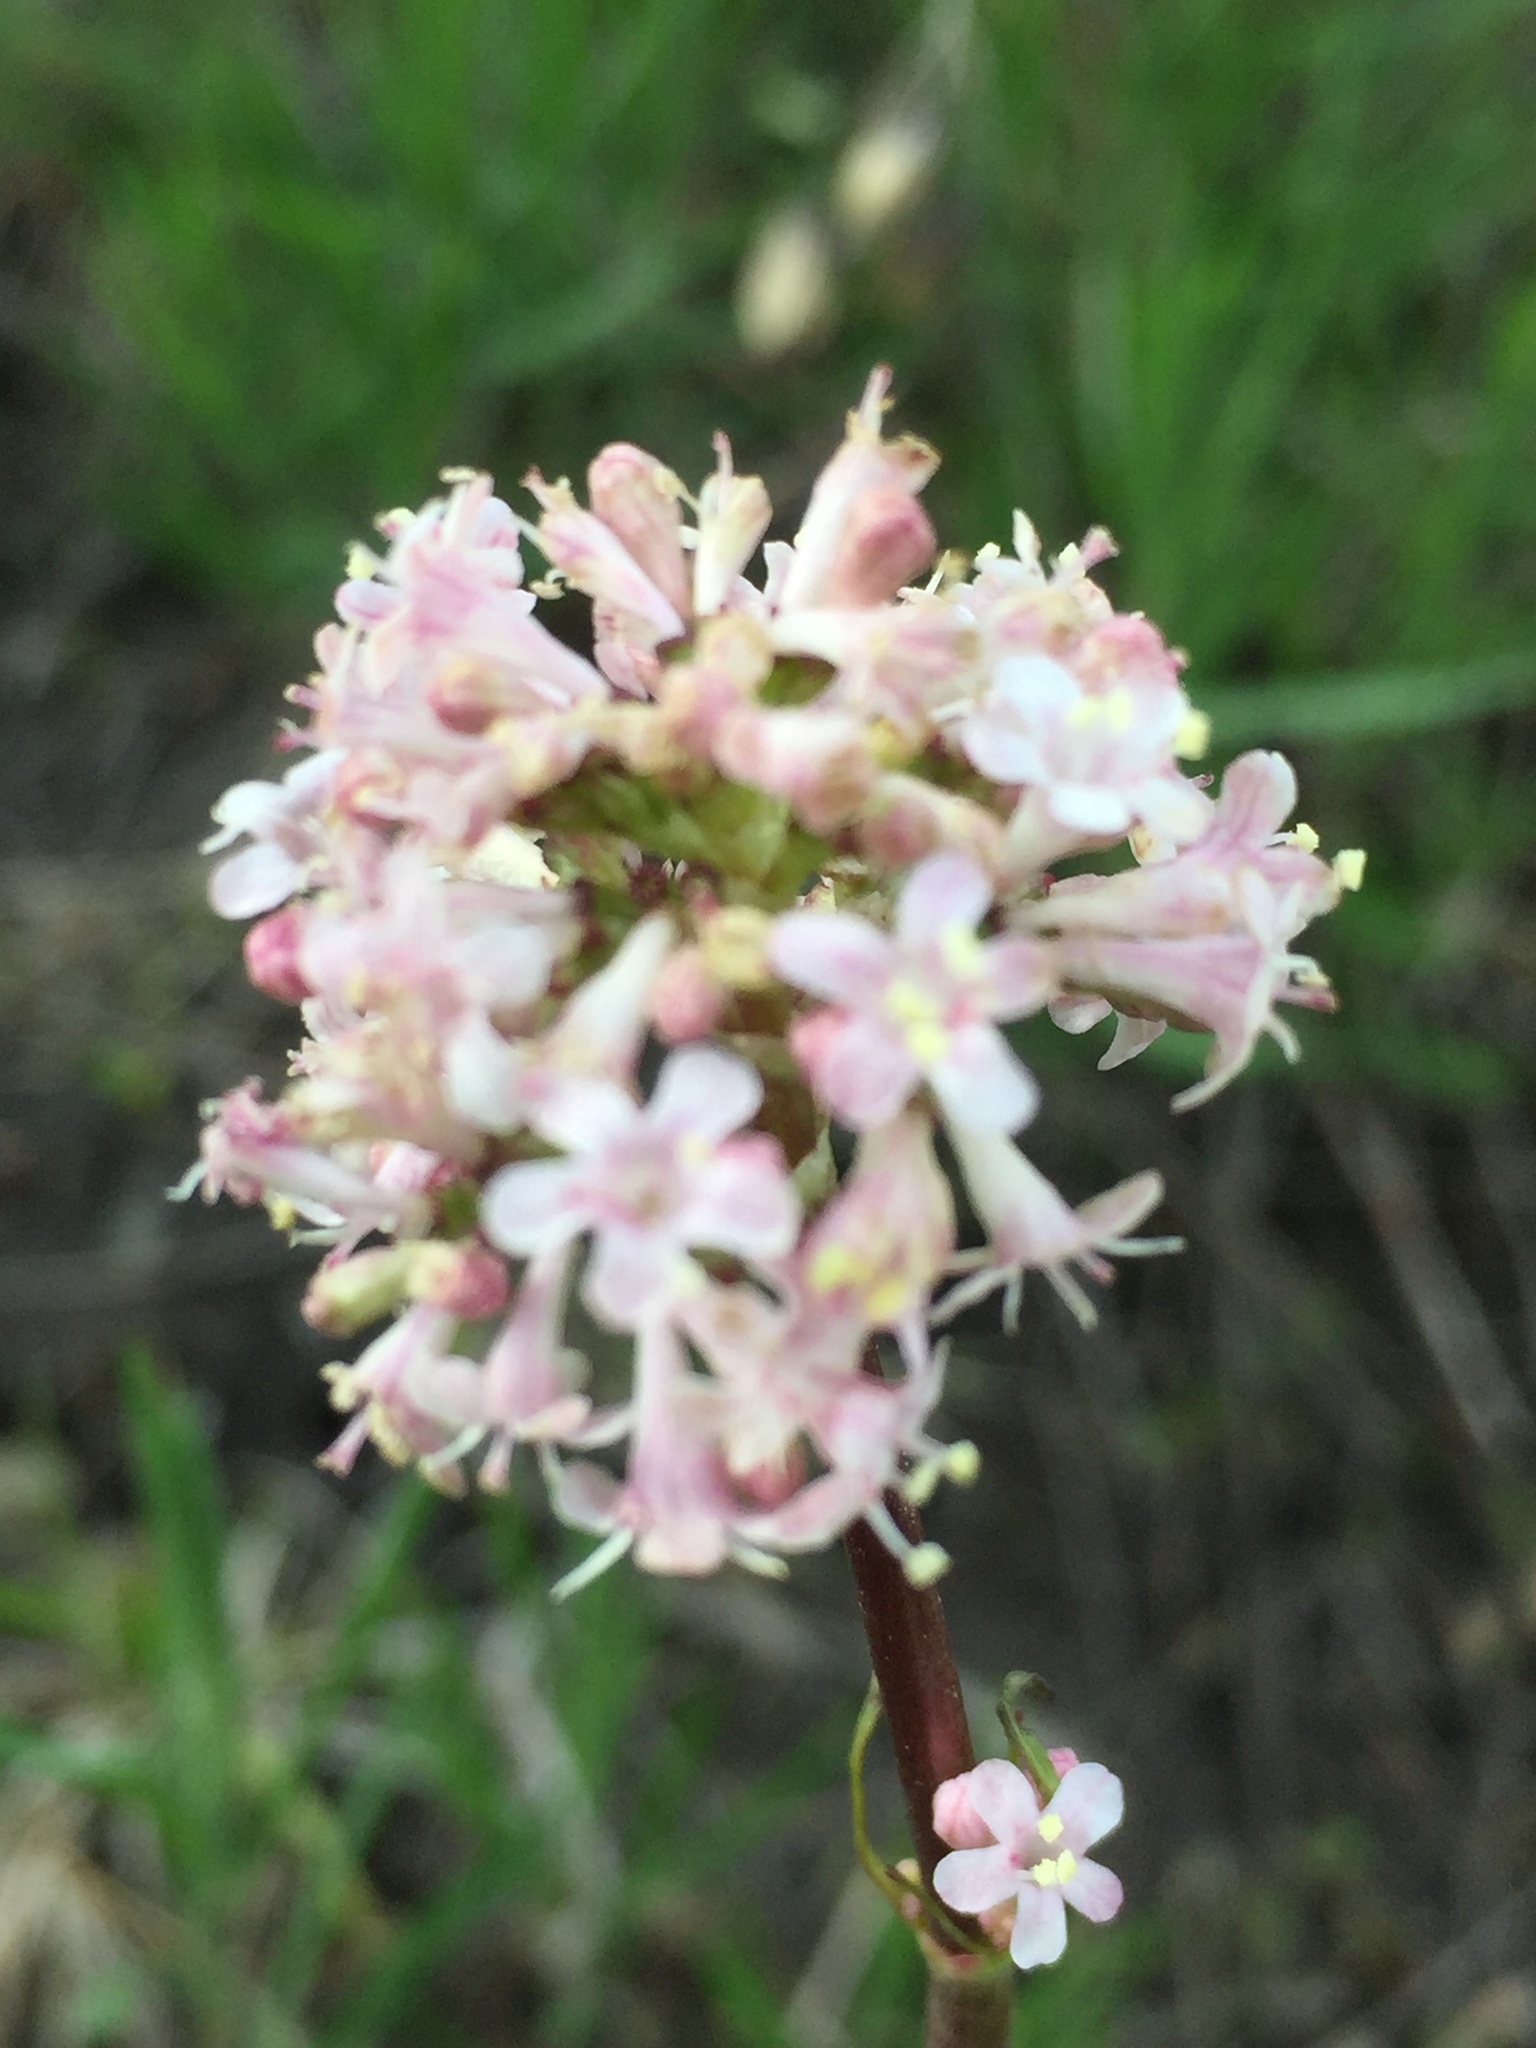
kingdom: Plantae
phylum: Tracheophyta
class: Magnoliopsida
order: Dipsacales
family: Caprifoliaceae
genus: Valeriana
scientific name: Valeriana tuberosa
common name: Tuberous valerian
